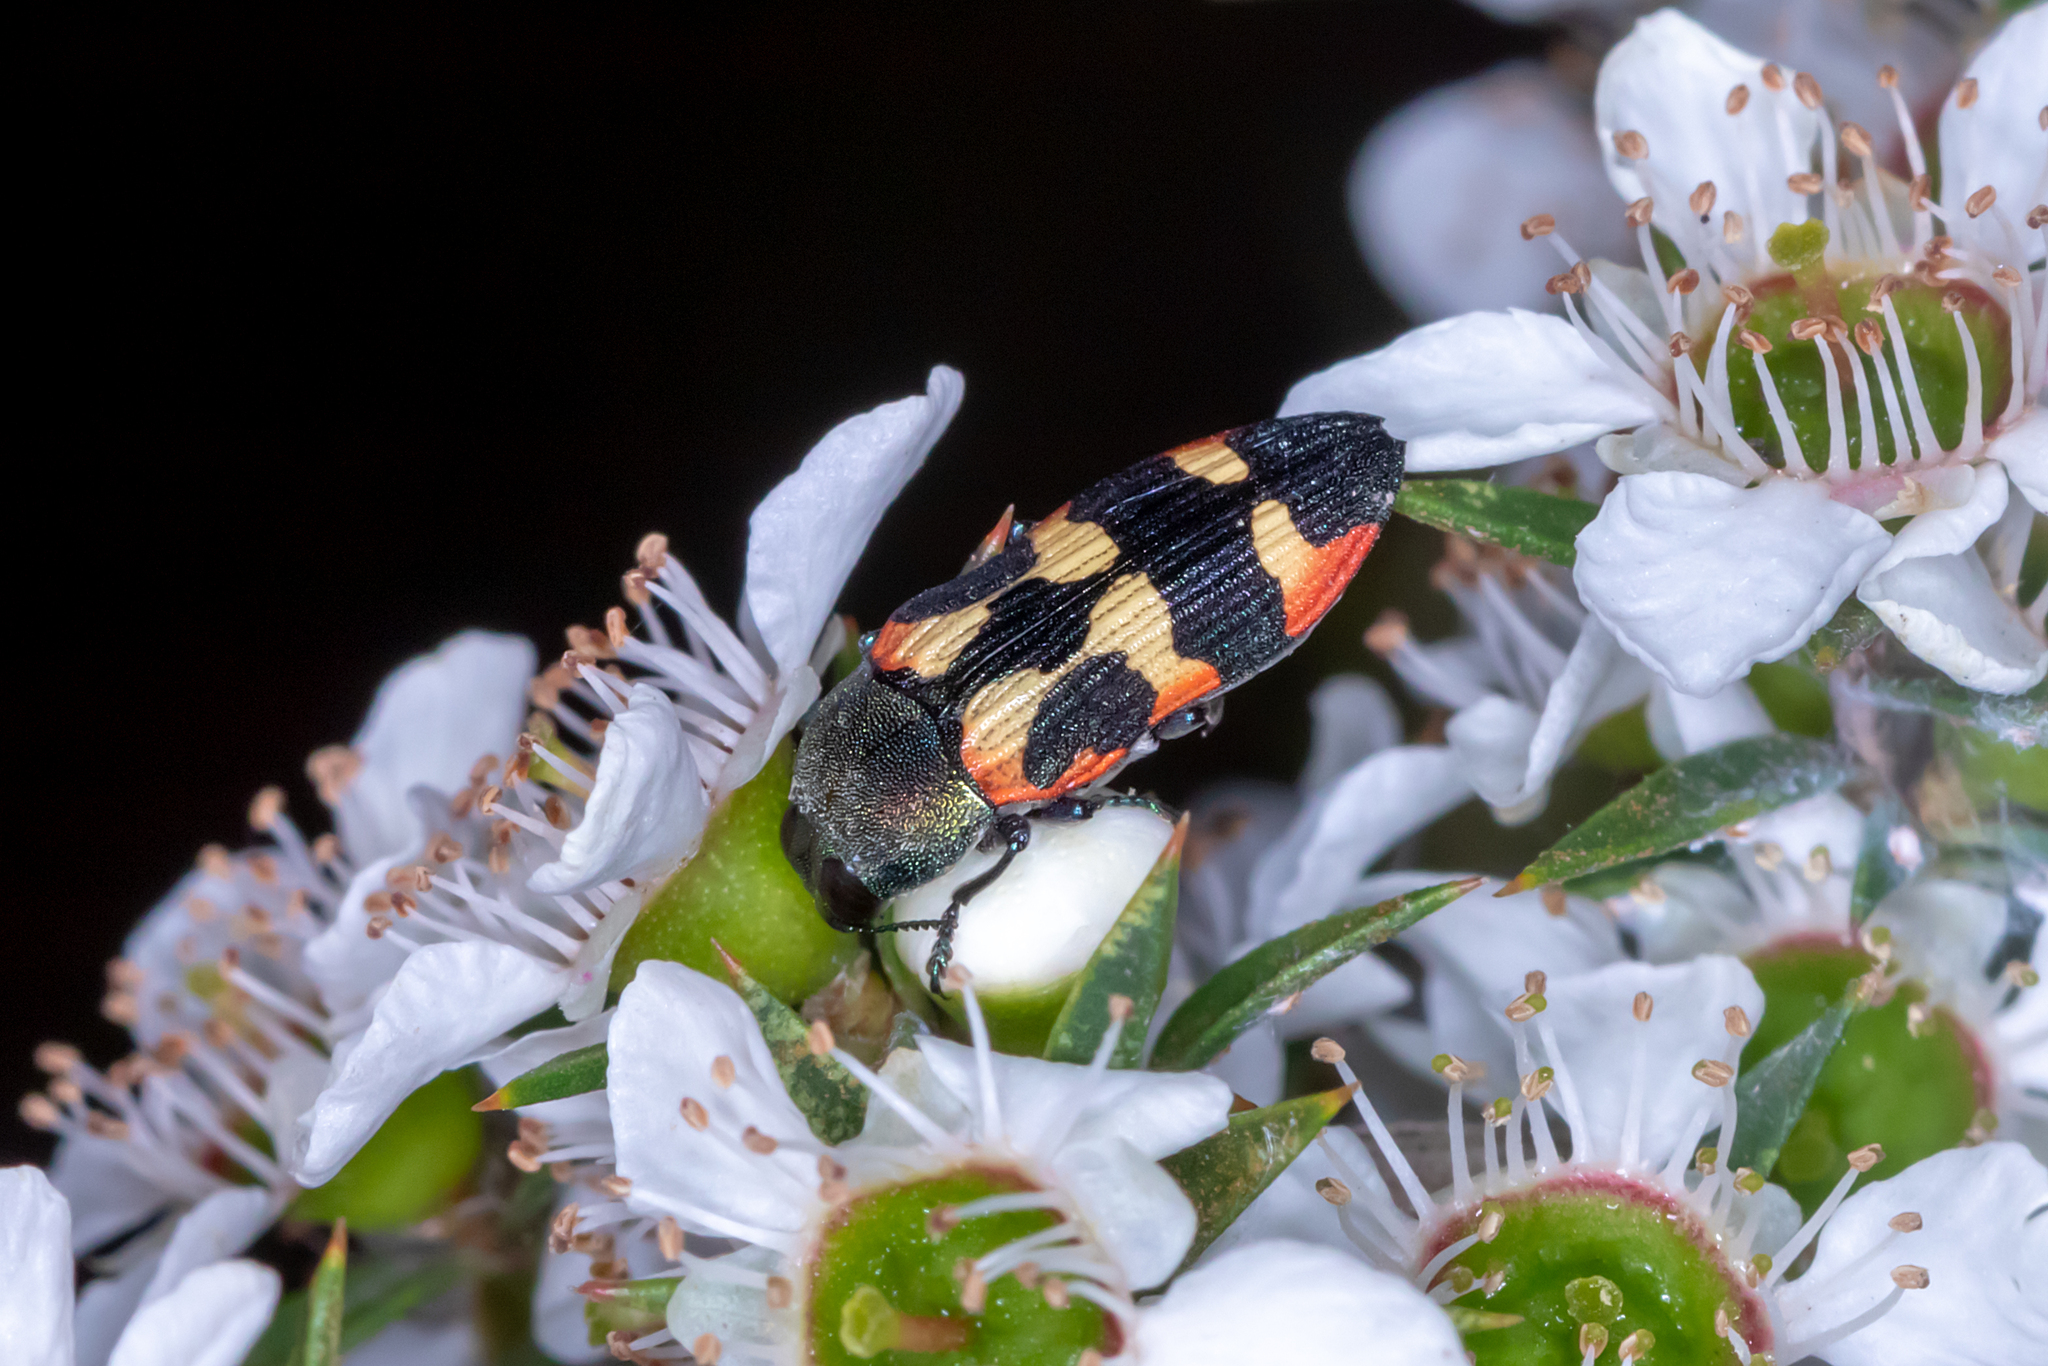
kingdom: Animalia
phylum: Arthropoda
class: Insecta
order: Coleoptera
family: Buprestidae
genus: Castiarina
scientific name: Castiarina sexplagiata
